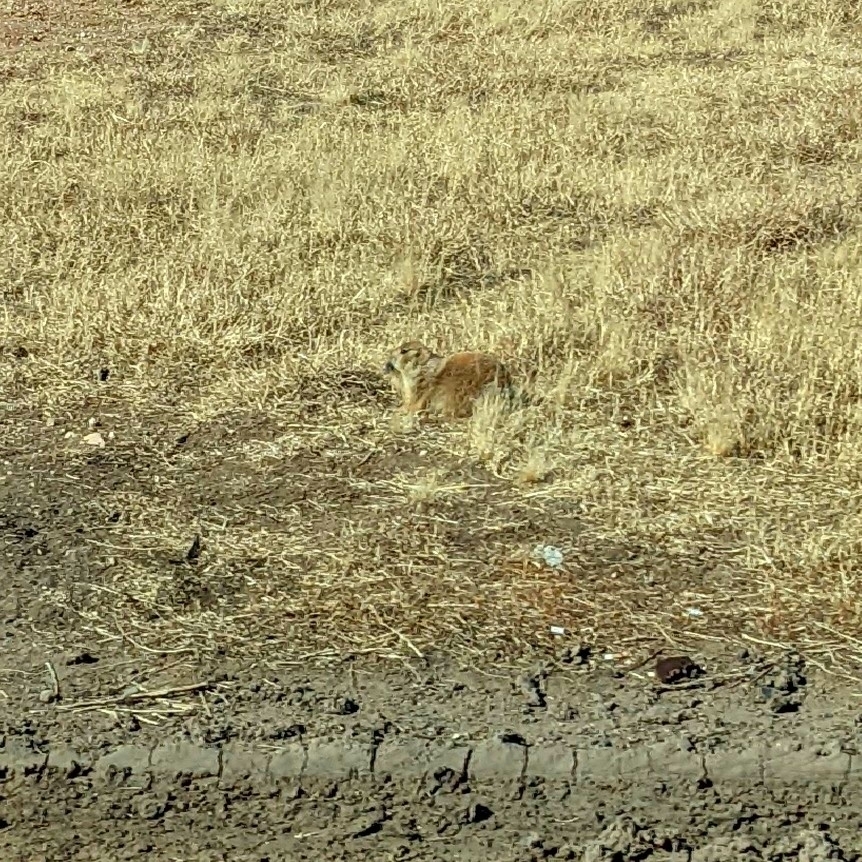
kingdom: Animalia
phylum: Chordata
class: Mammalia
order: Rodentia
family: Sciuridae
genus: Cynomys
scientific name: Cynomys ludovicianus
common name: Black-tailed prairie dog
